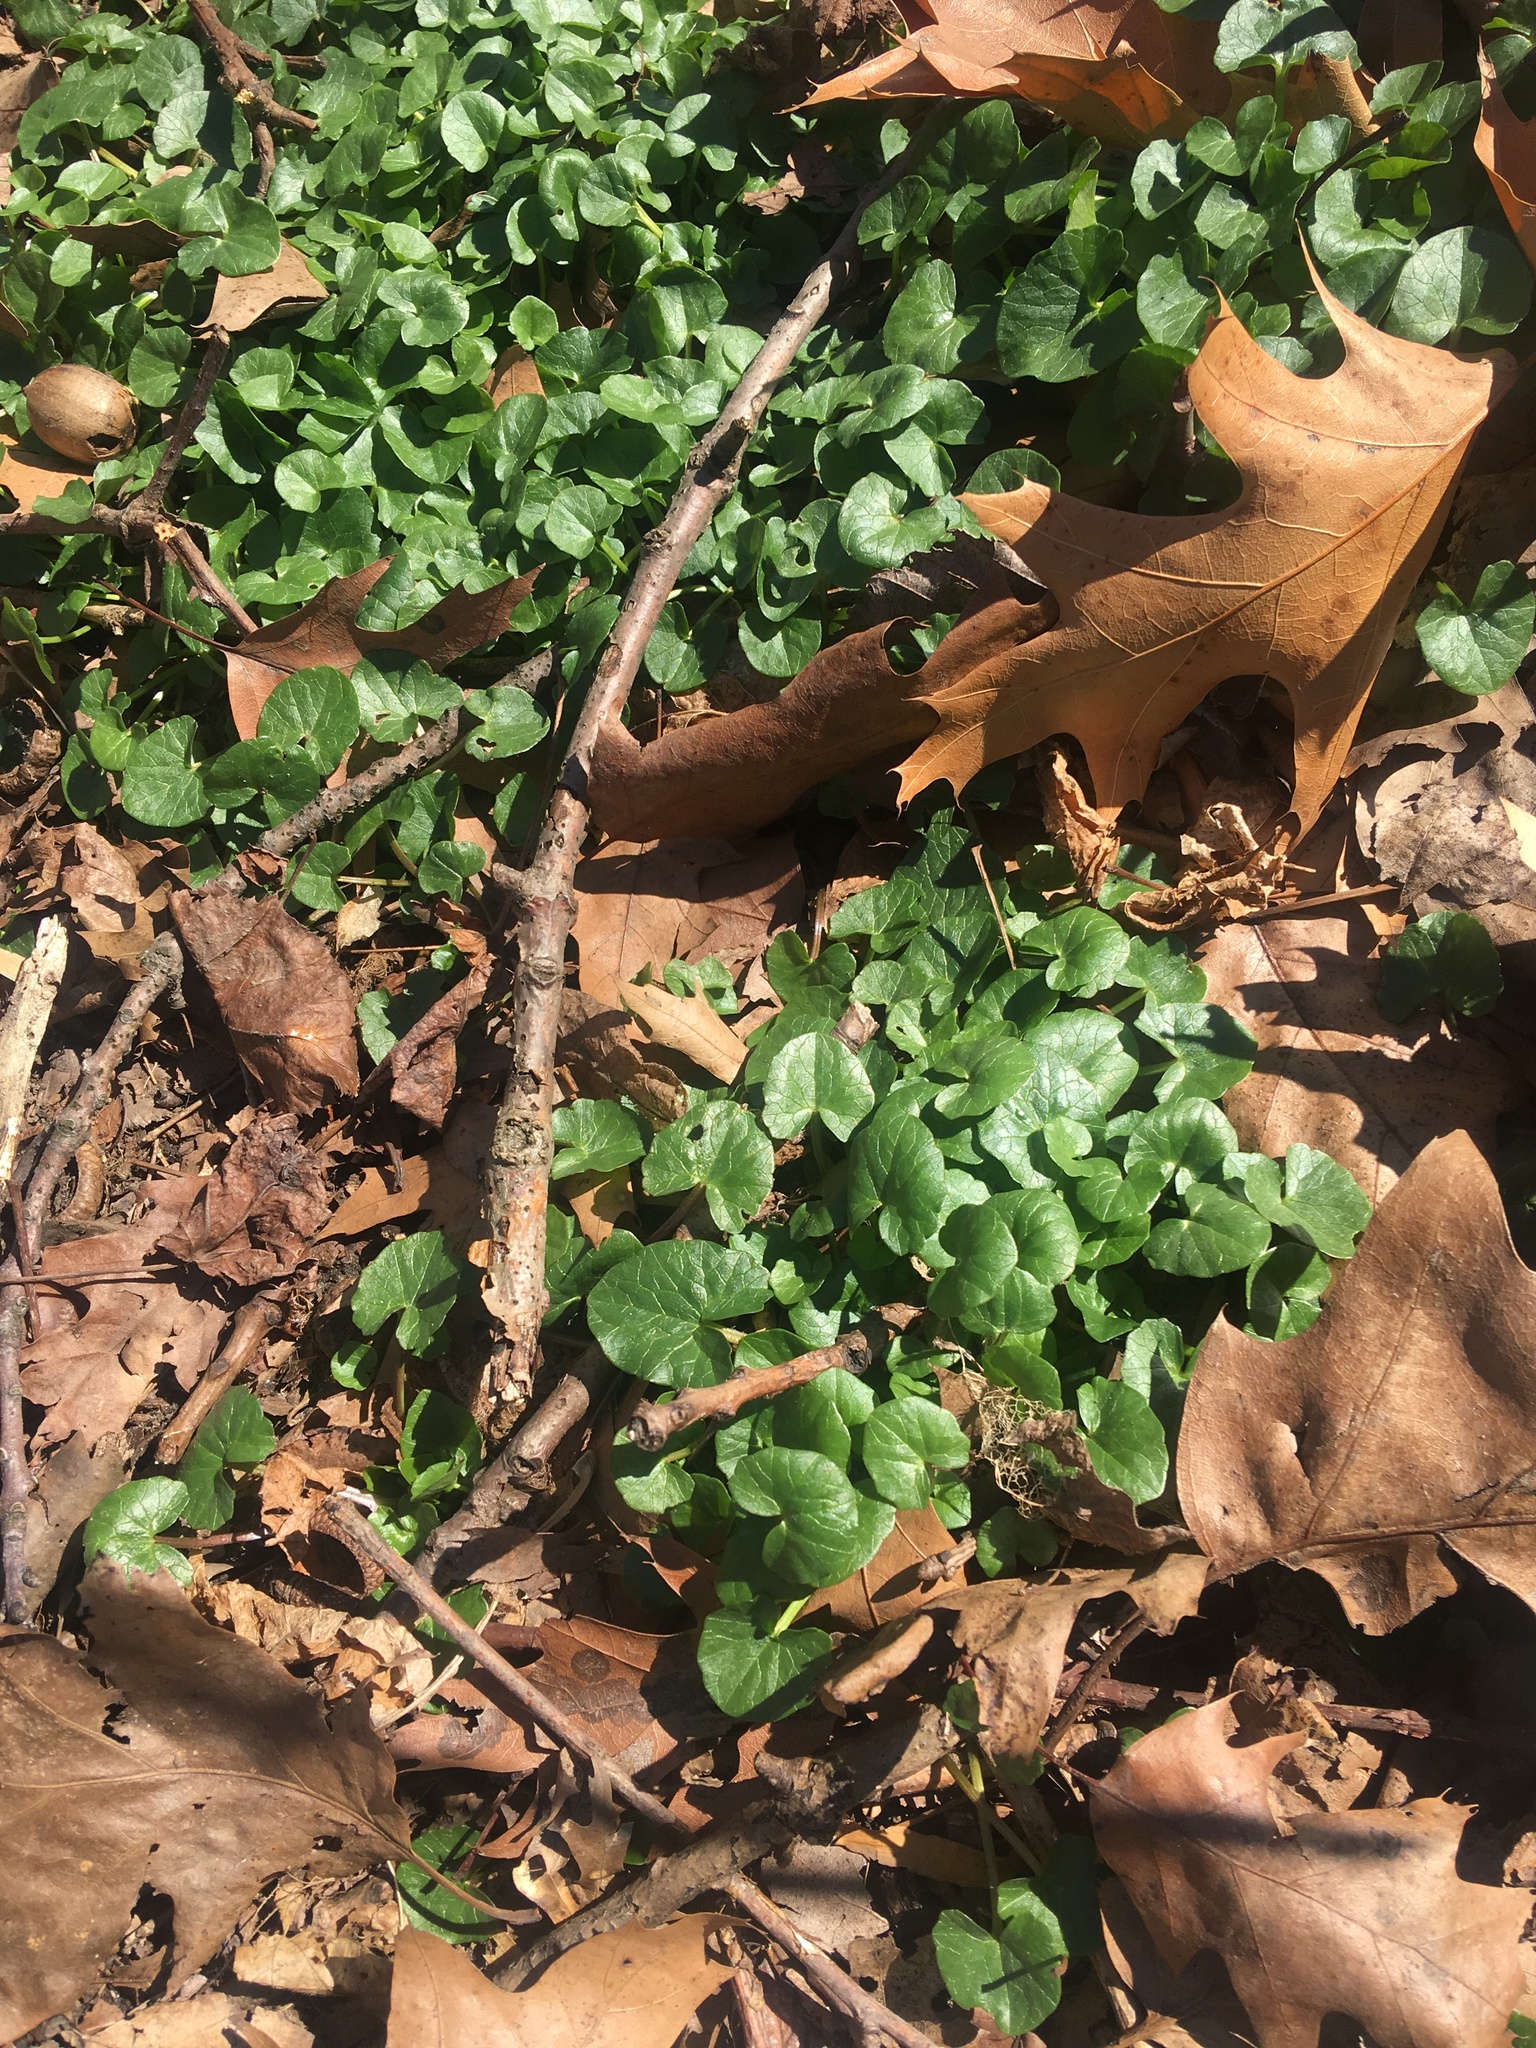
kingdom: Plantae
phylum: Tracheophyta
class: Magnoliopsida
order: Ranunculales
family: Ranunculaceae
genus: Ficaria
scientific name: Ficaria verna
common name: Lesser celandine
